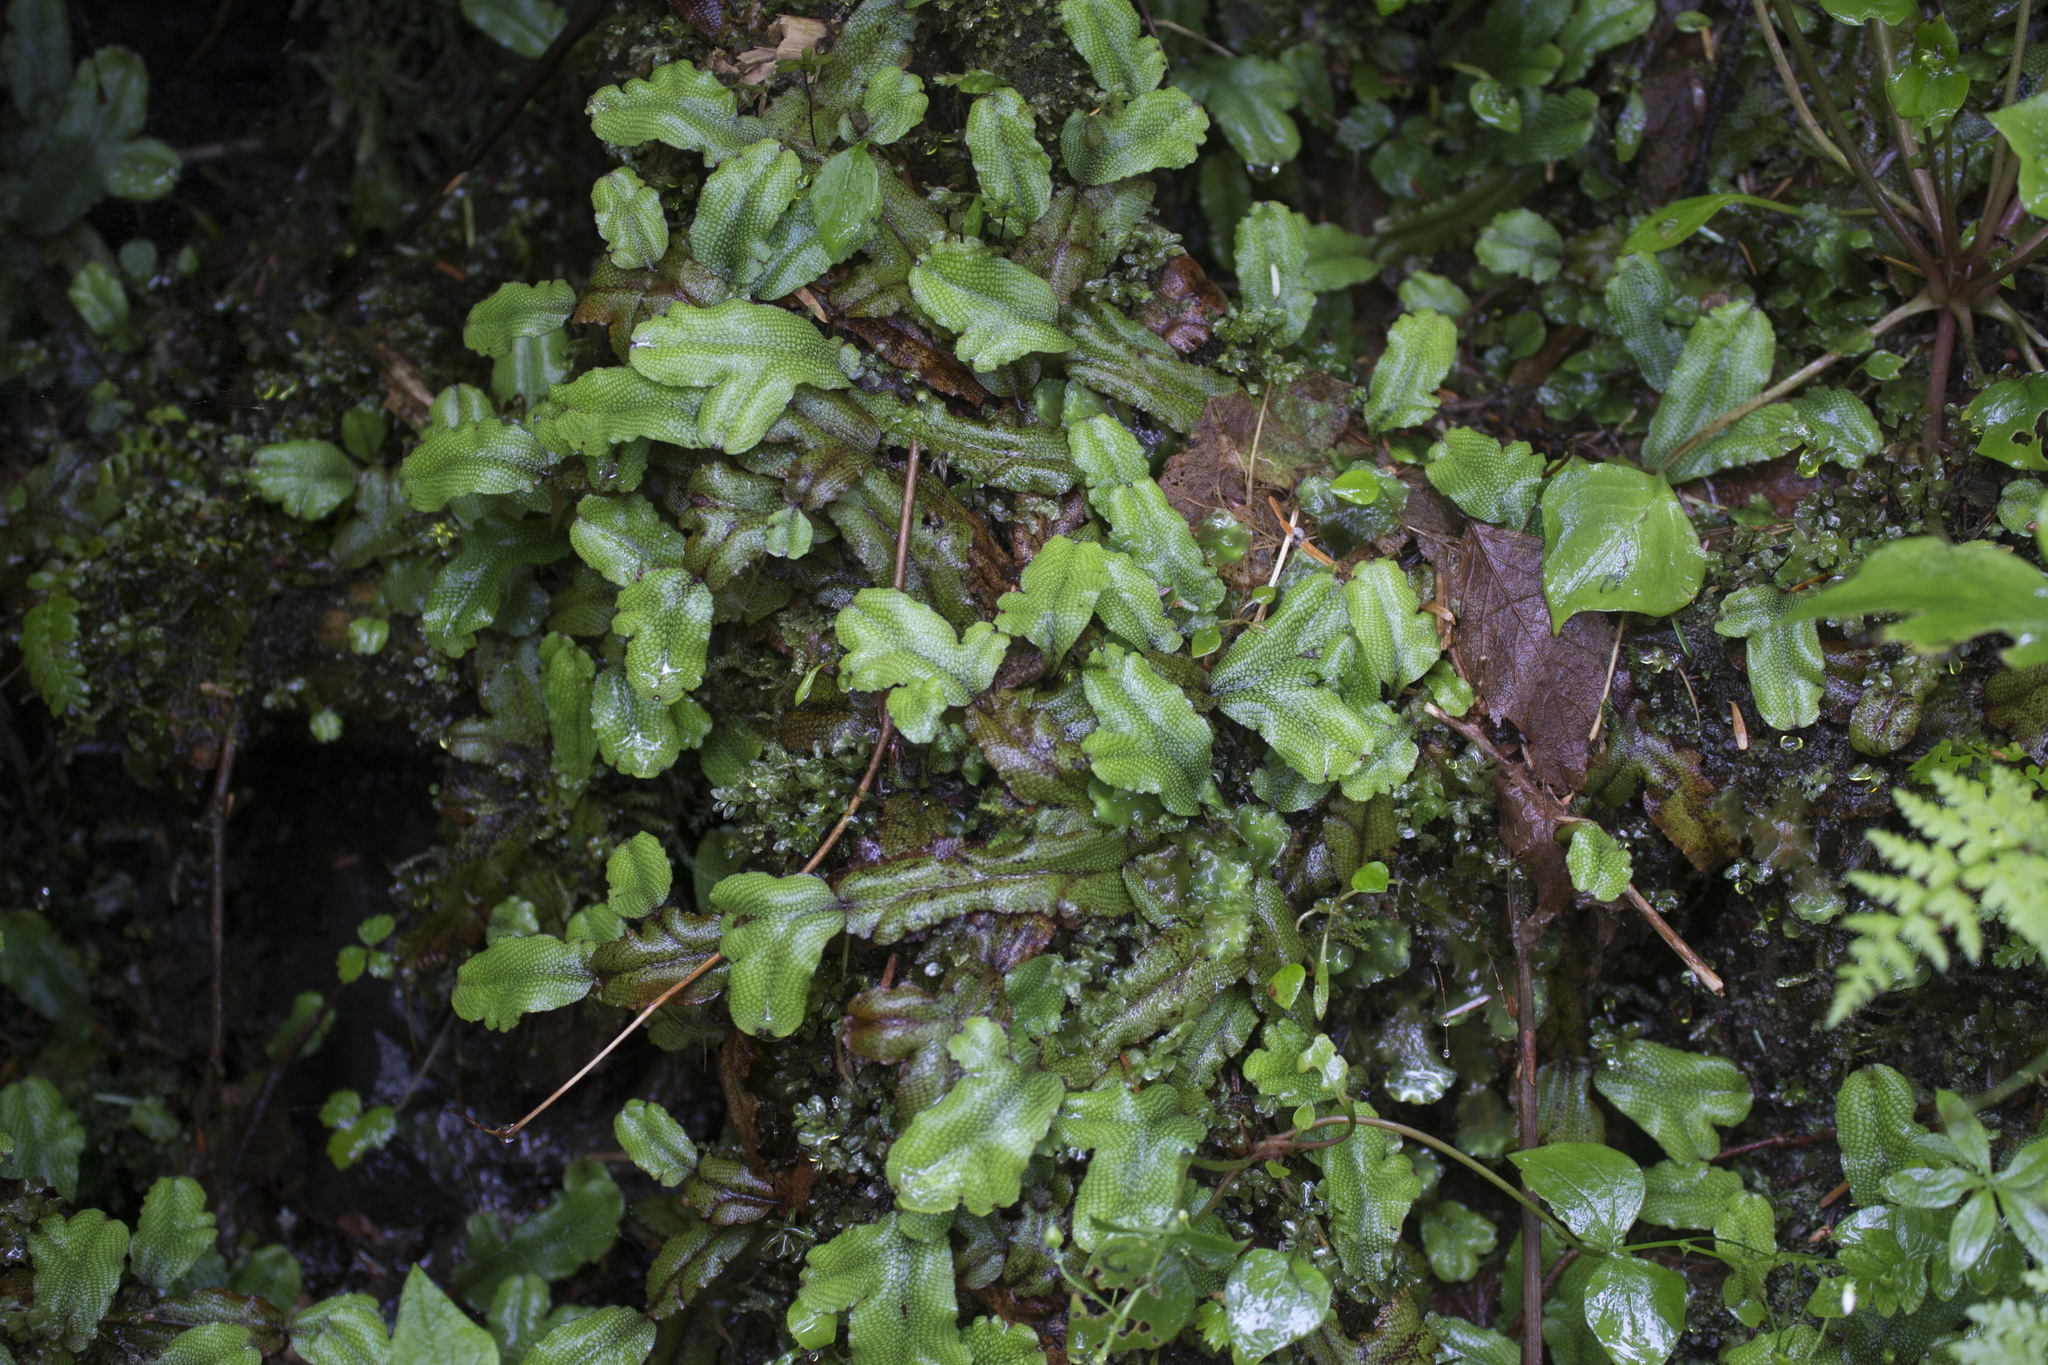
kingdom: Plantae
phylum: Marchantiophyta
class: Marchantiopsida
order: Marchantiales
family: Conocephalaceae
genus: Conocephalum
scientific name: Conocephalum conicum
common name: Great scented liverwort
